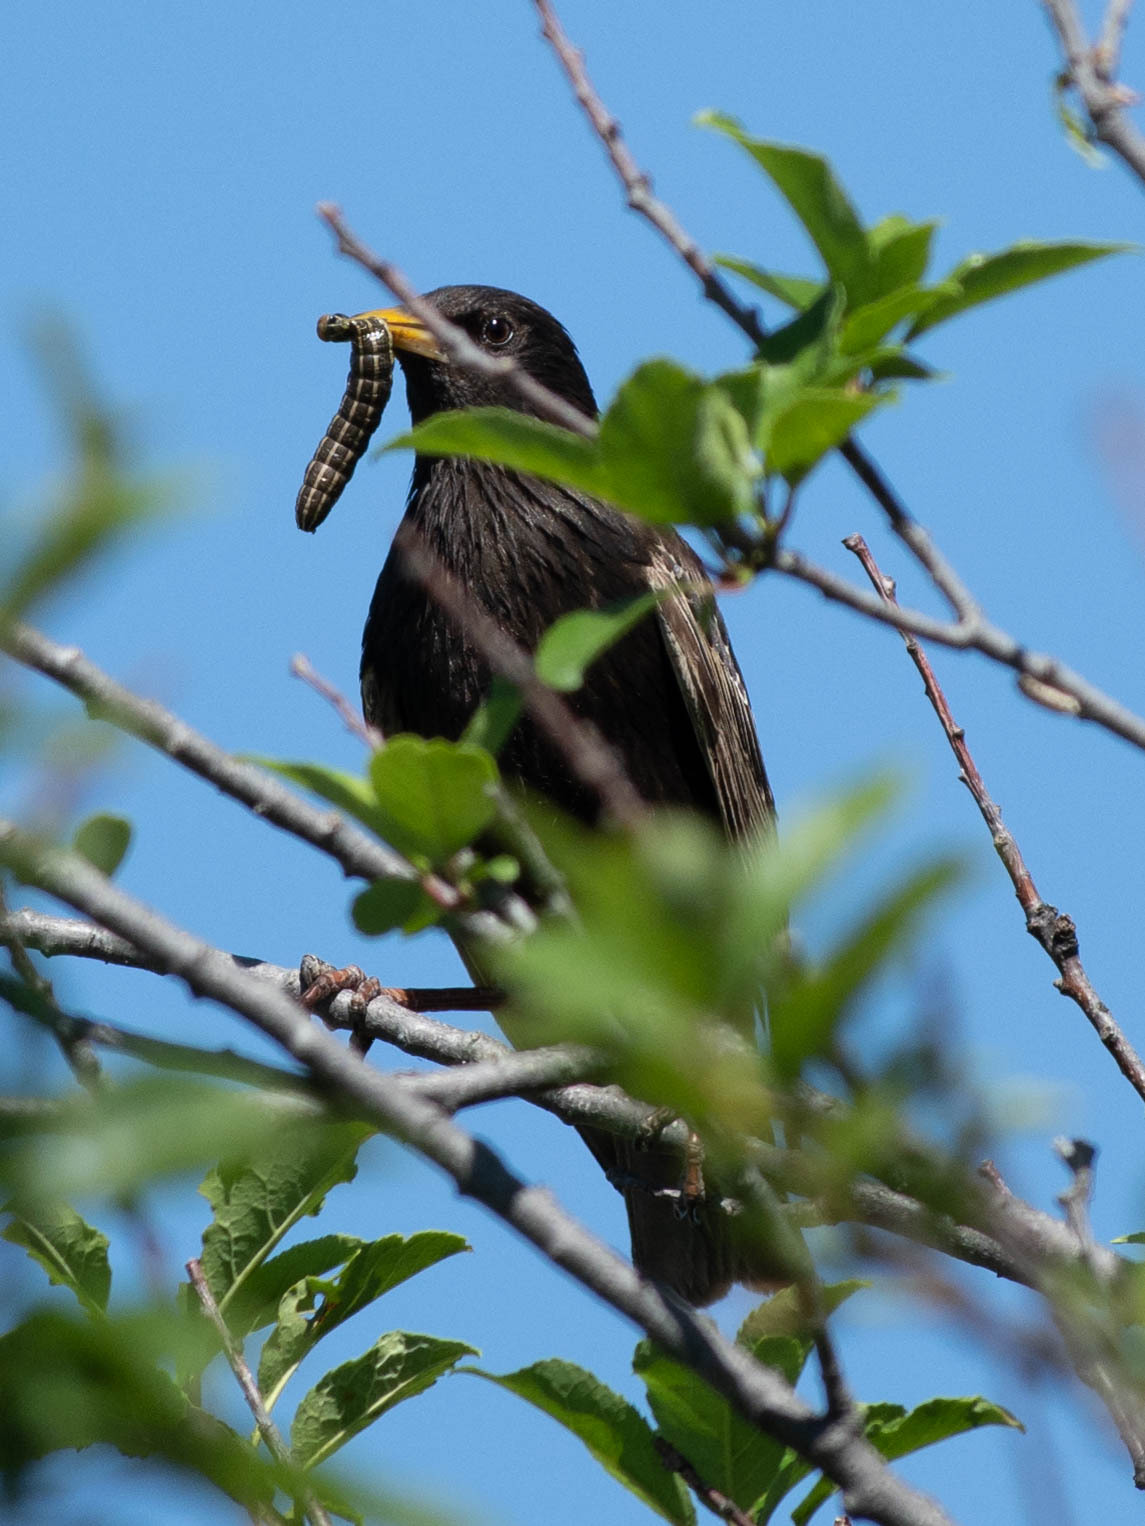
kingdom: Animalia
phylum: Chordata
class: Aves
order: Passeriformes
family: Sturnidae
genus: Sturnus
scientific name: Sturnus vulgaris
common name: Common starling
